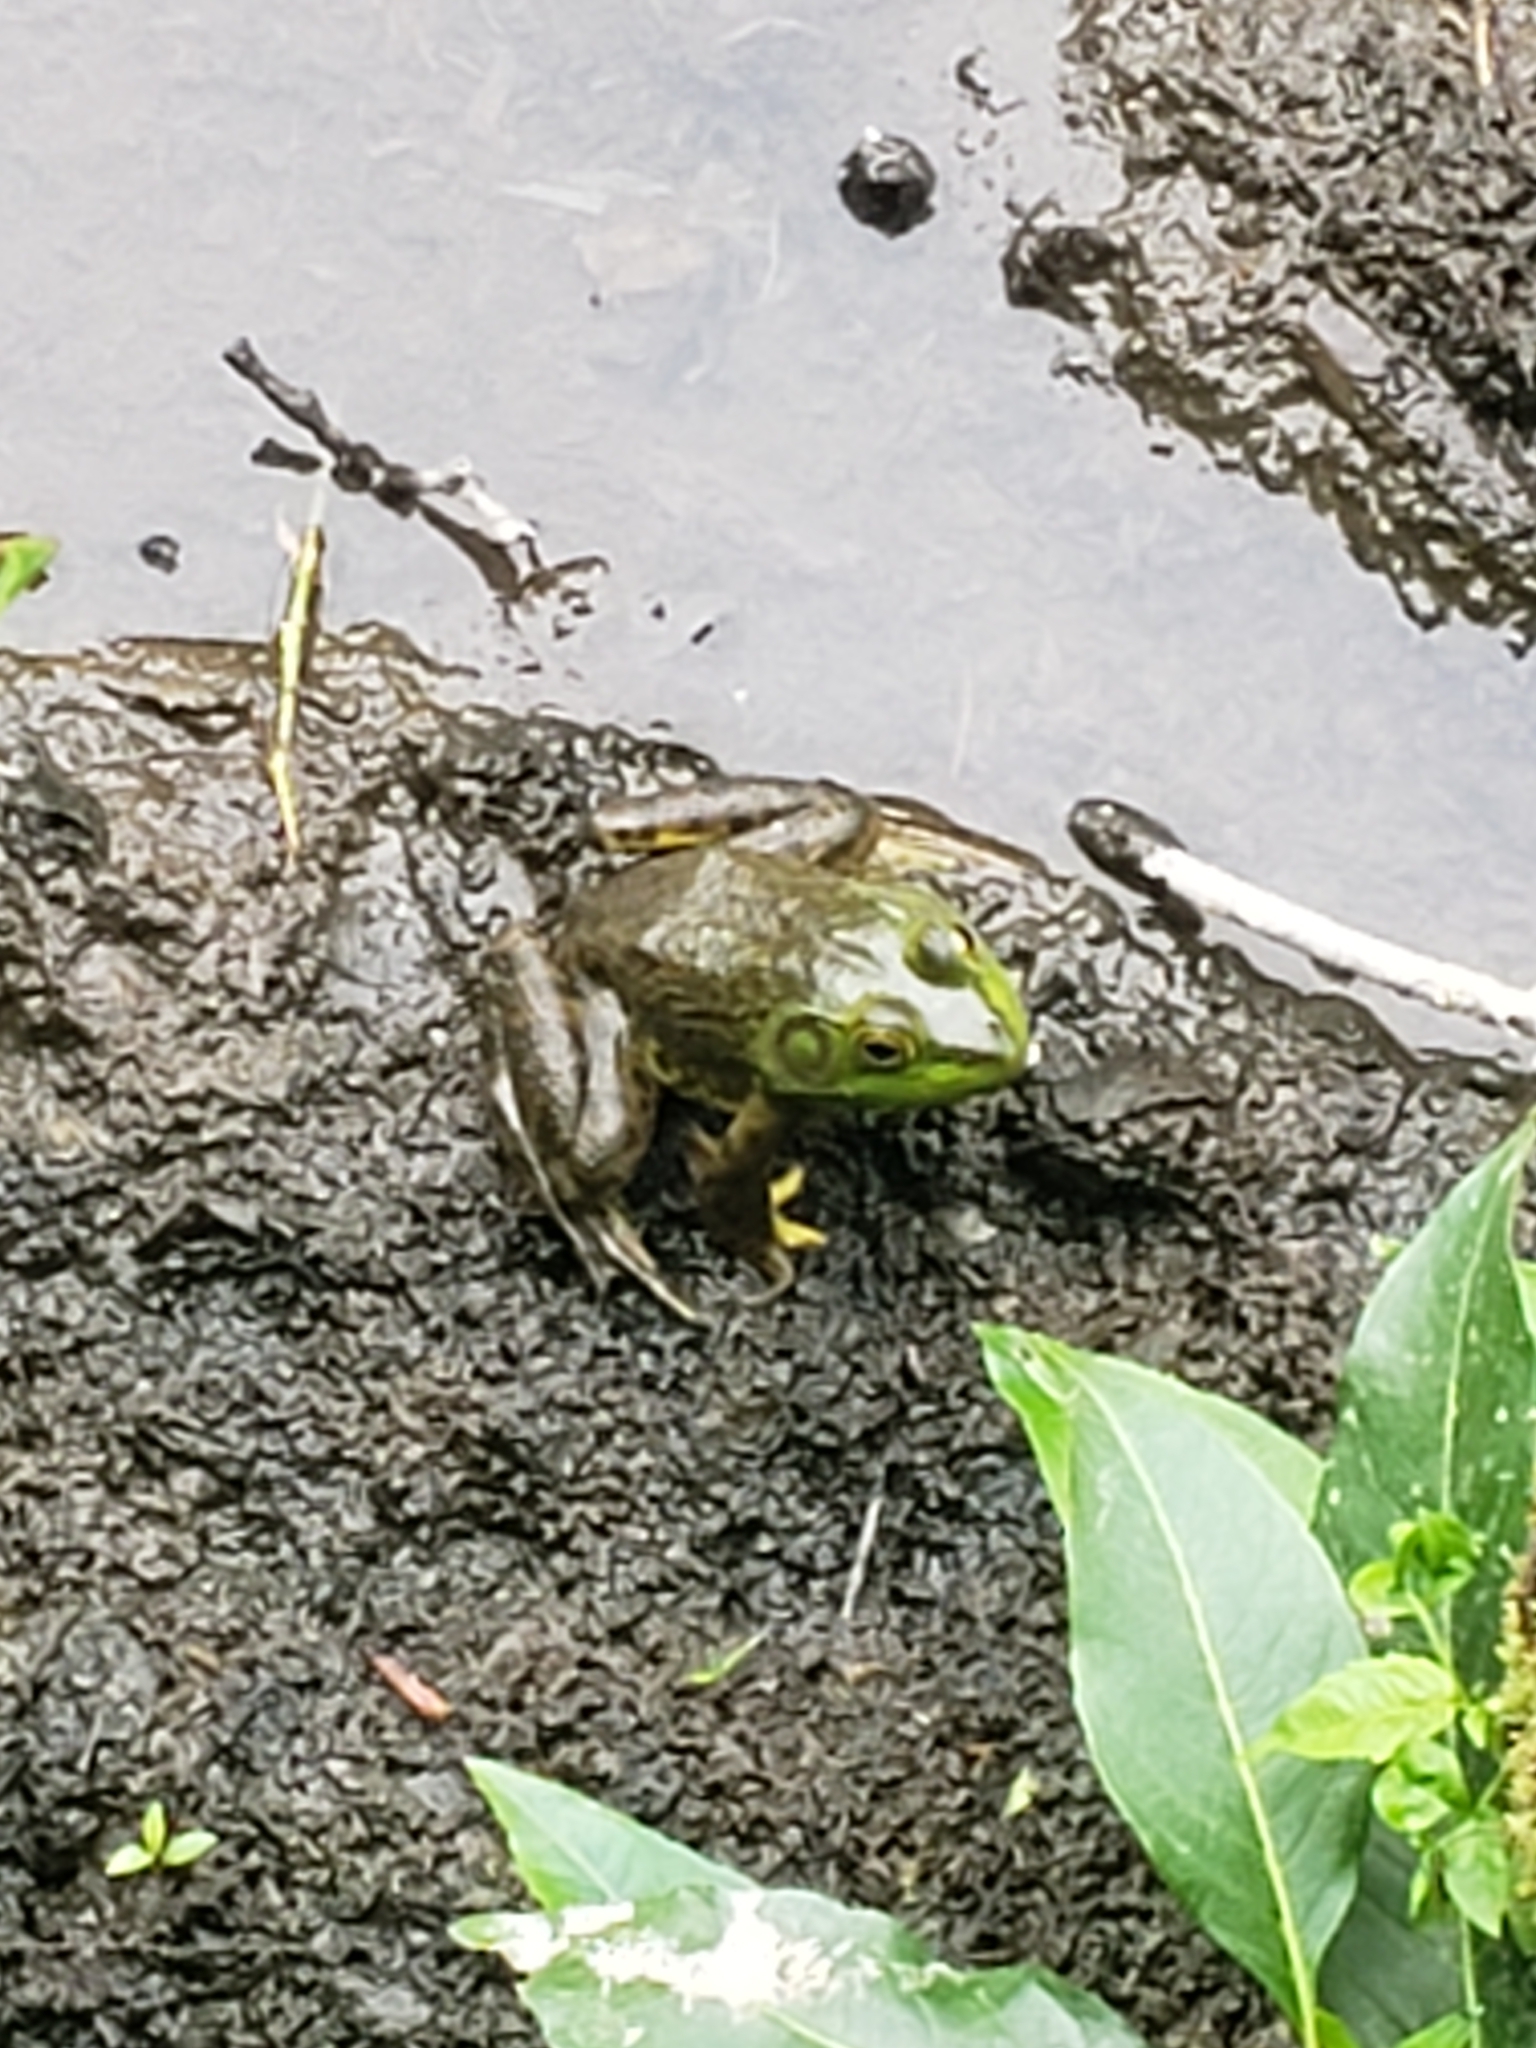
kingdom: Animalia
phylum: Chordata
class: Amphibia
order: Anura
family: Ranidae
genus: Lithobates
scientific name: Lithobates catesbeianus
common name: American bullfrog
